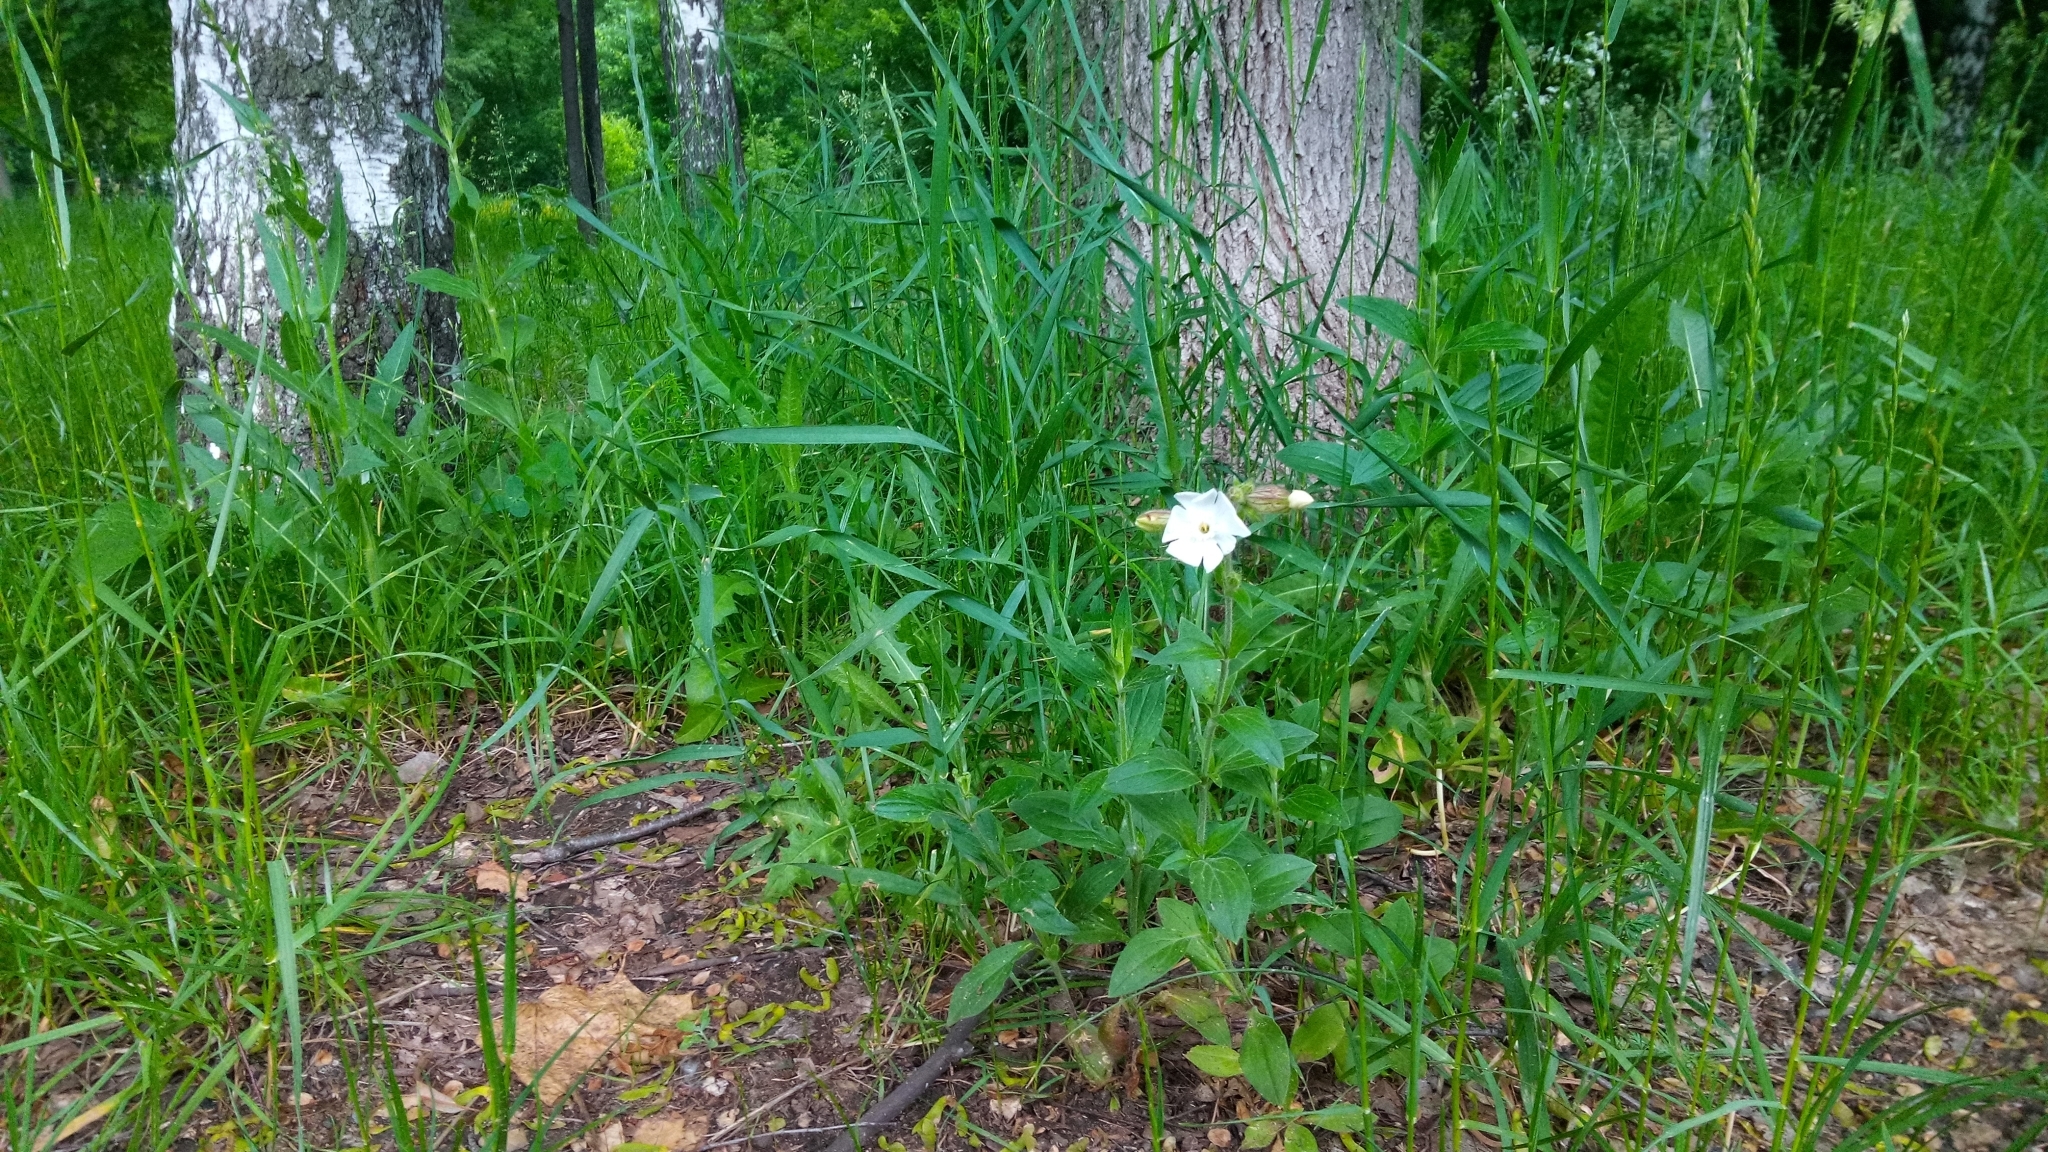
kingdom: Plantae
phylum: Tracheophyta
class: Magnoliopsida
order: Caryophyllales
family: Caryophyllaceae
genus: Silene
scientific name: Silene latifolia
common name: White campion
